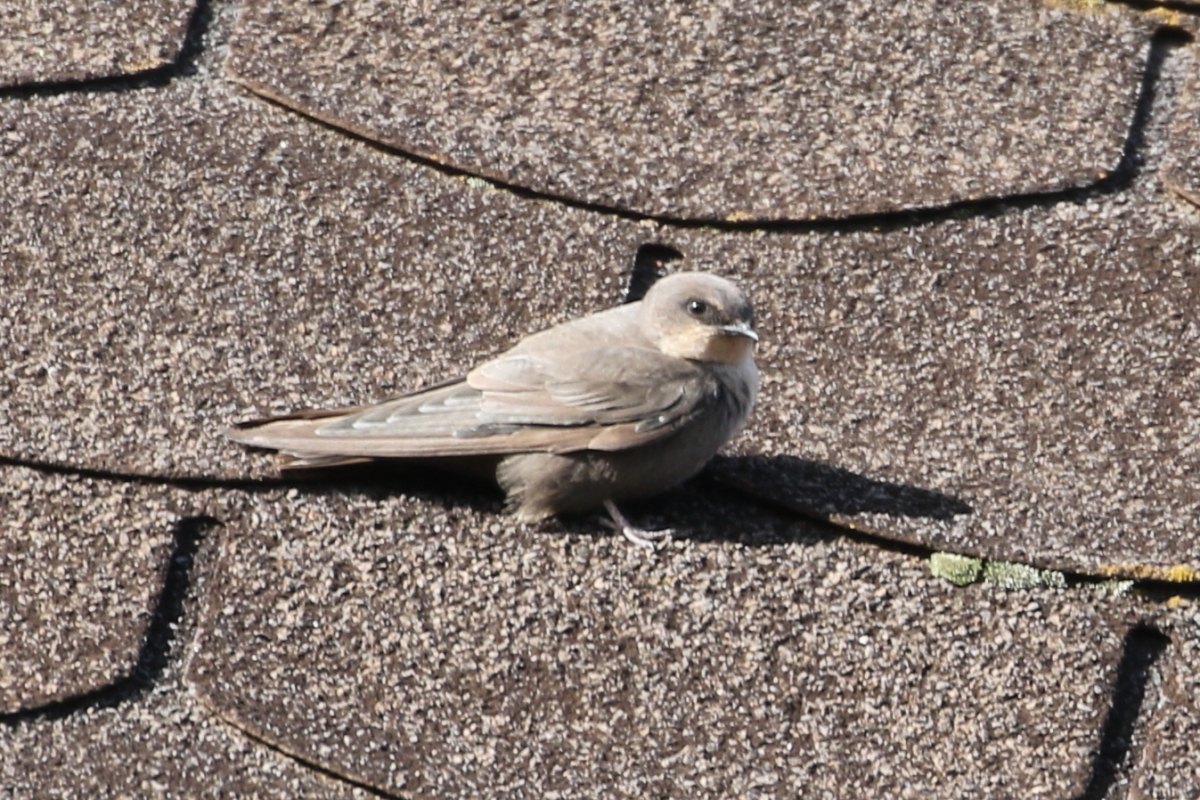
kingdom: Animalia
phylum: Chordata
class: Aves
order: Passeriformes
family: Hirundinidae
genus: Ptyonoprogne
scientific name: Ptyonoprogne fuligula
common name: Rock martin
